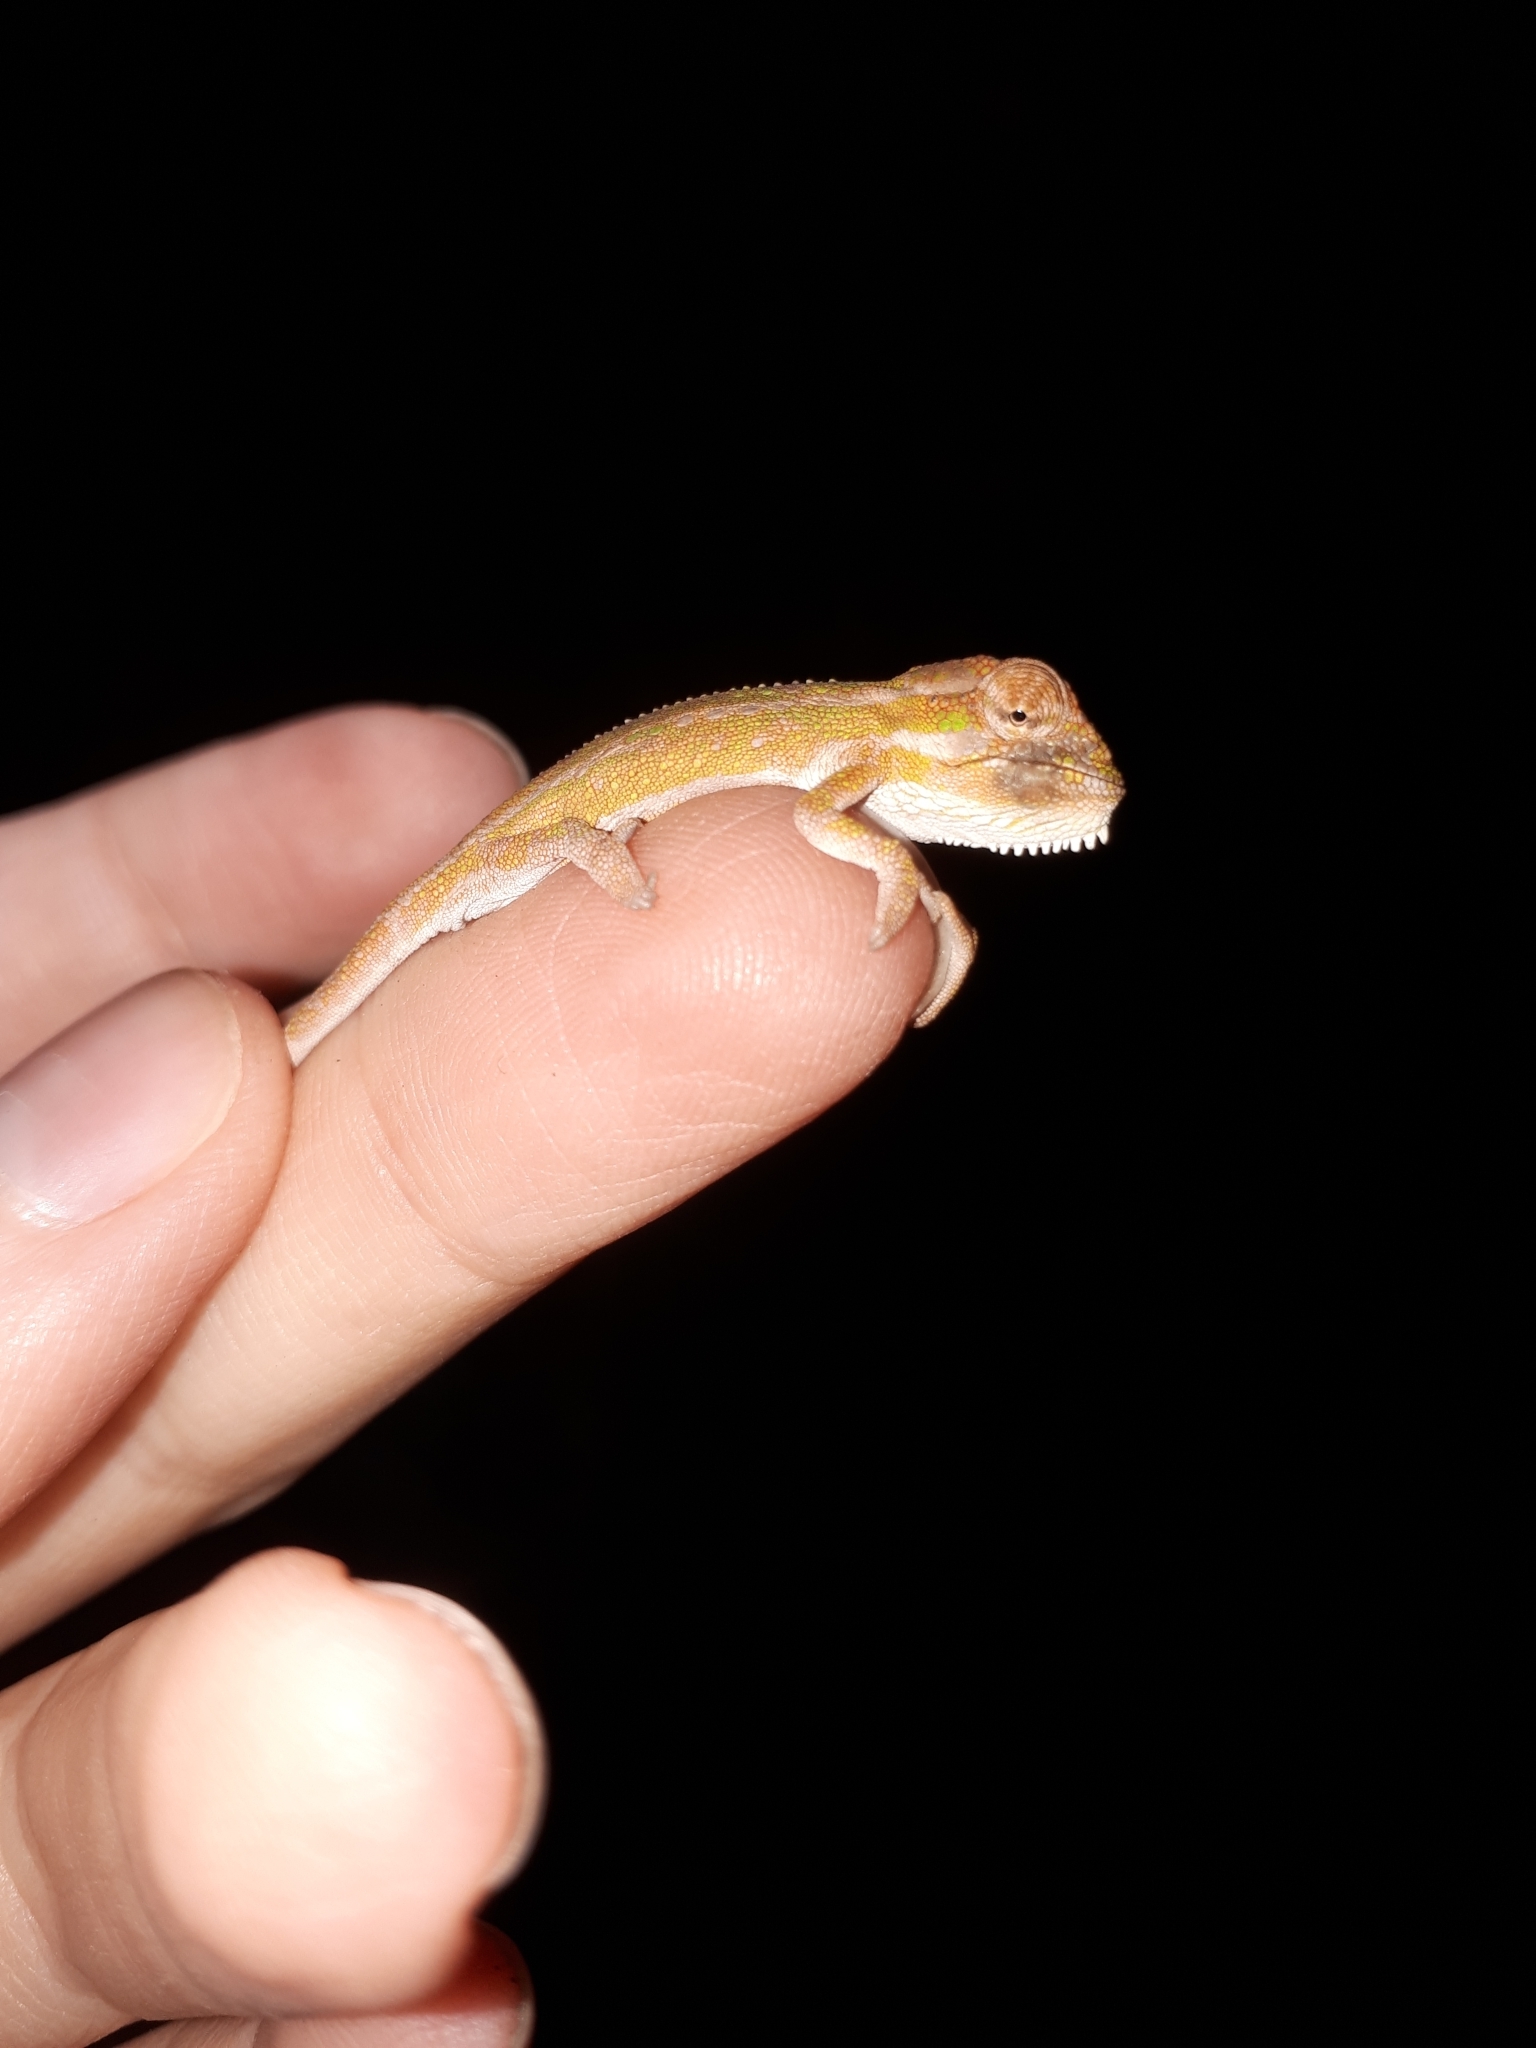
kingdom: Animalia
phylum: Chordata
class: Squamata
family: Chamaeleonidae
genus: Bradypodion
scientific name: Bradypodion pumilum
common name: Cape dwarf chameleon
